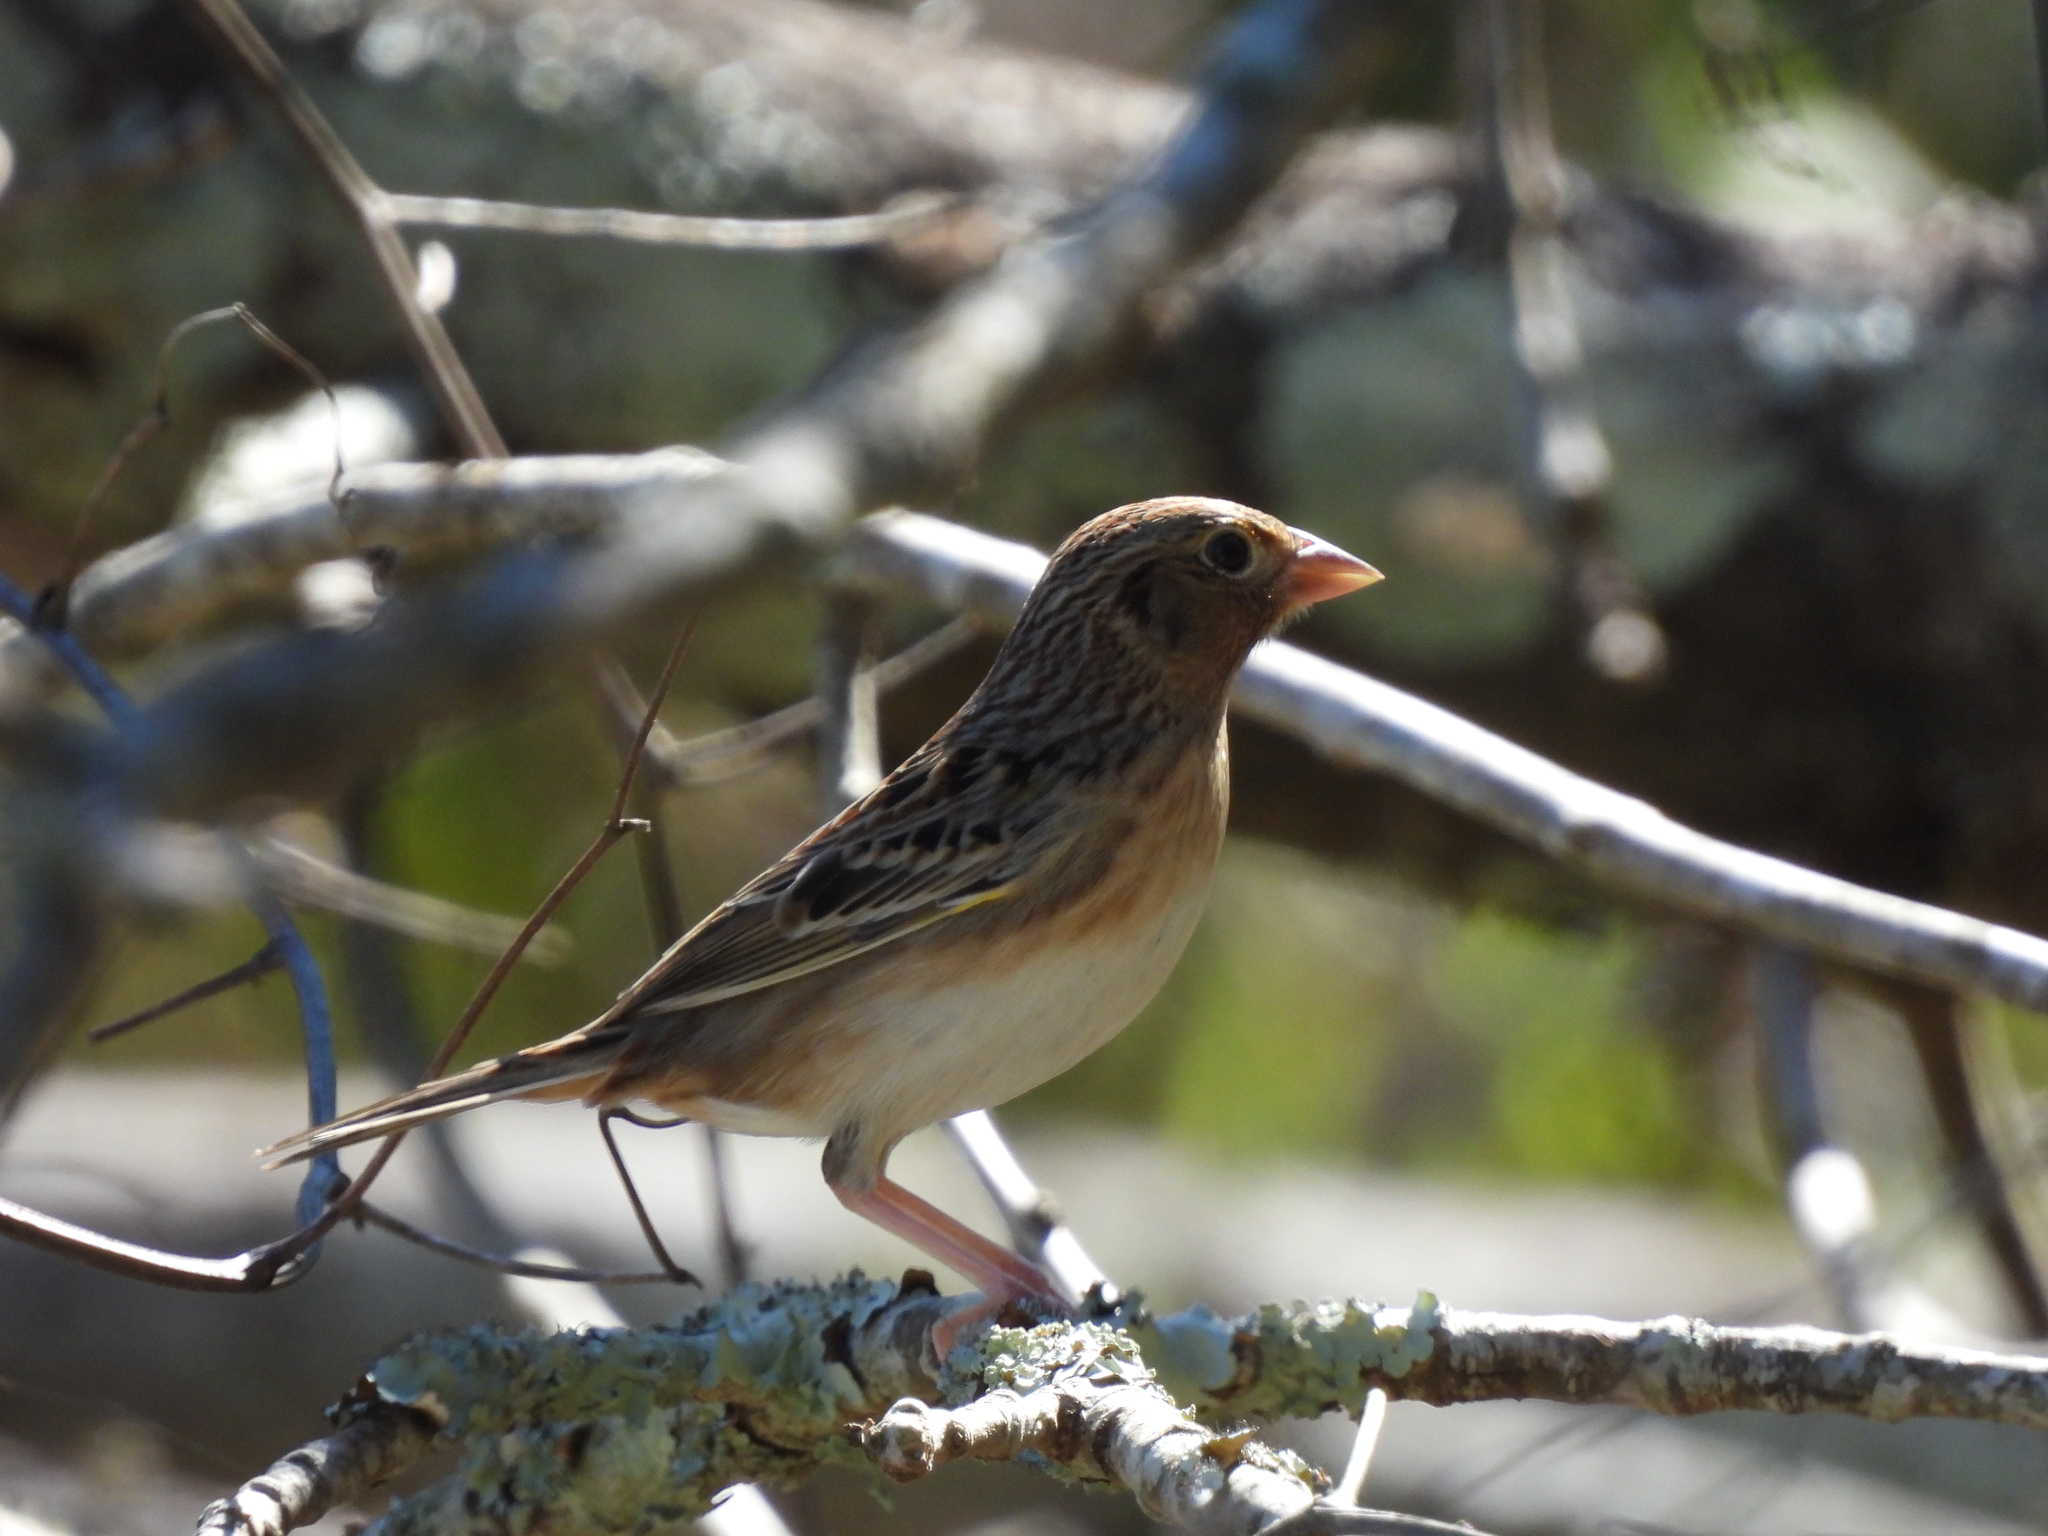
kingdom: Animalia
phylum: Chordata
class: Aves
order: Passeriformes
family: Passerellidae
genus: Ammodramus
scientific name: Ammodramus savannarum
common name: Grasshopper sparrow
